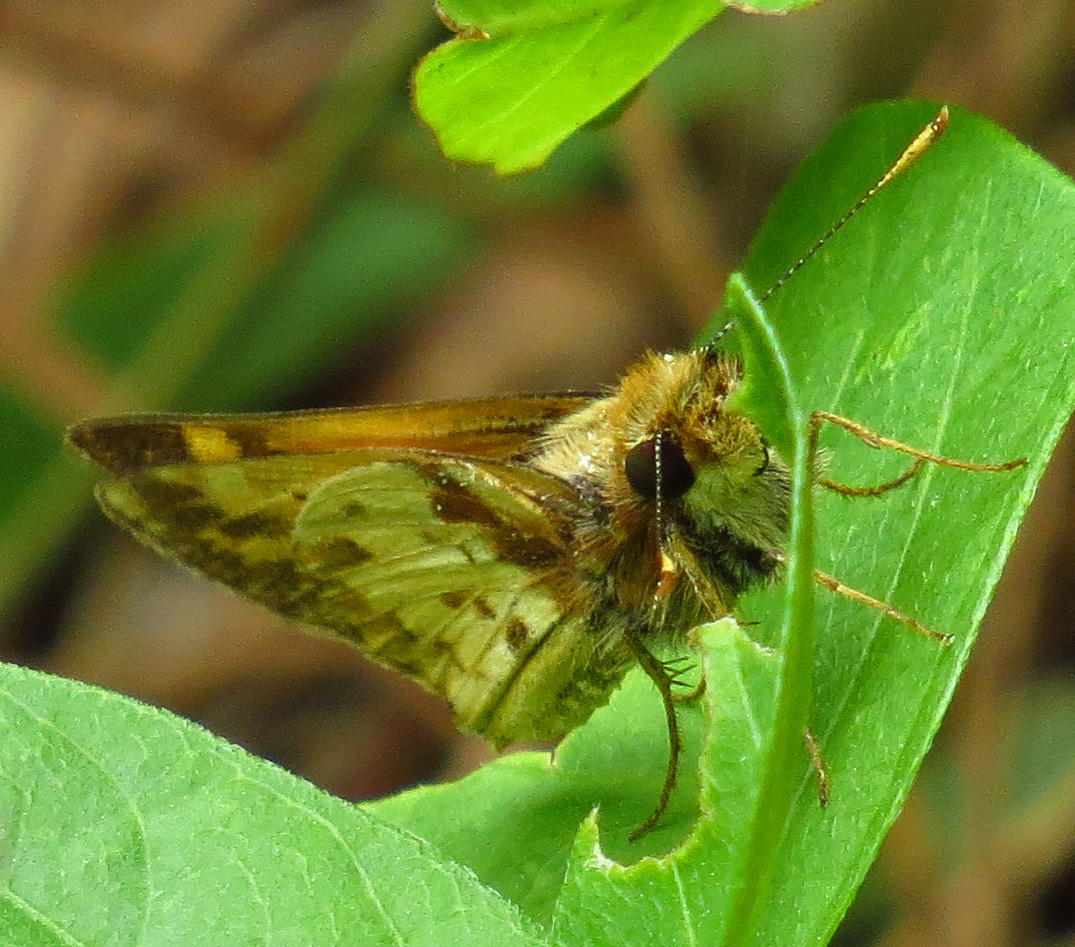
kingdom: Animalia
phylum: Arthropoda
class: Insecta
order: Lepidoptera
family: Hesperiidae
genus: Lon
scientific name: Lon zabulon
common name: Zabulon skipper
